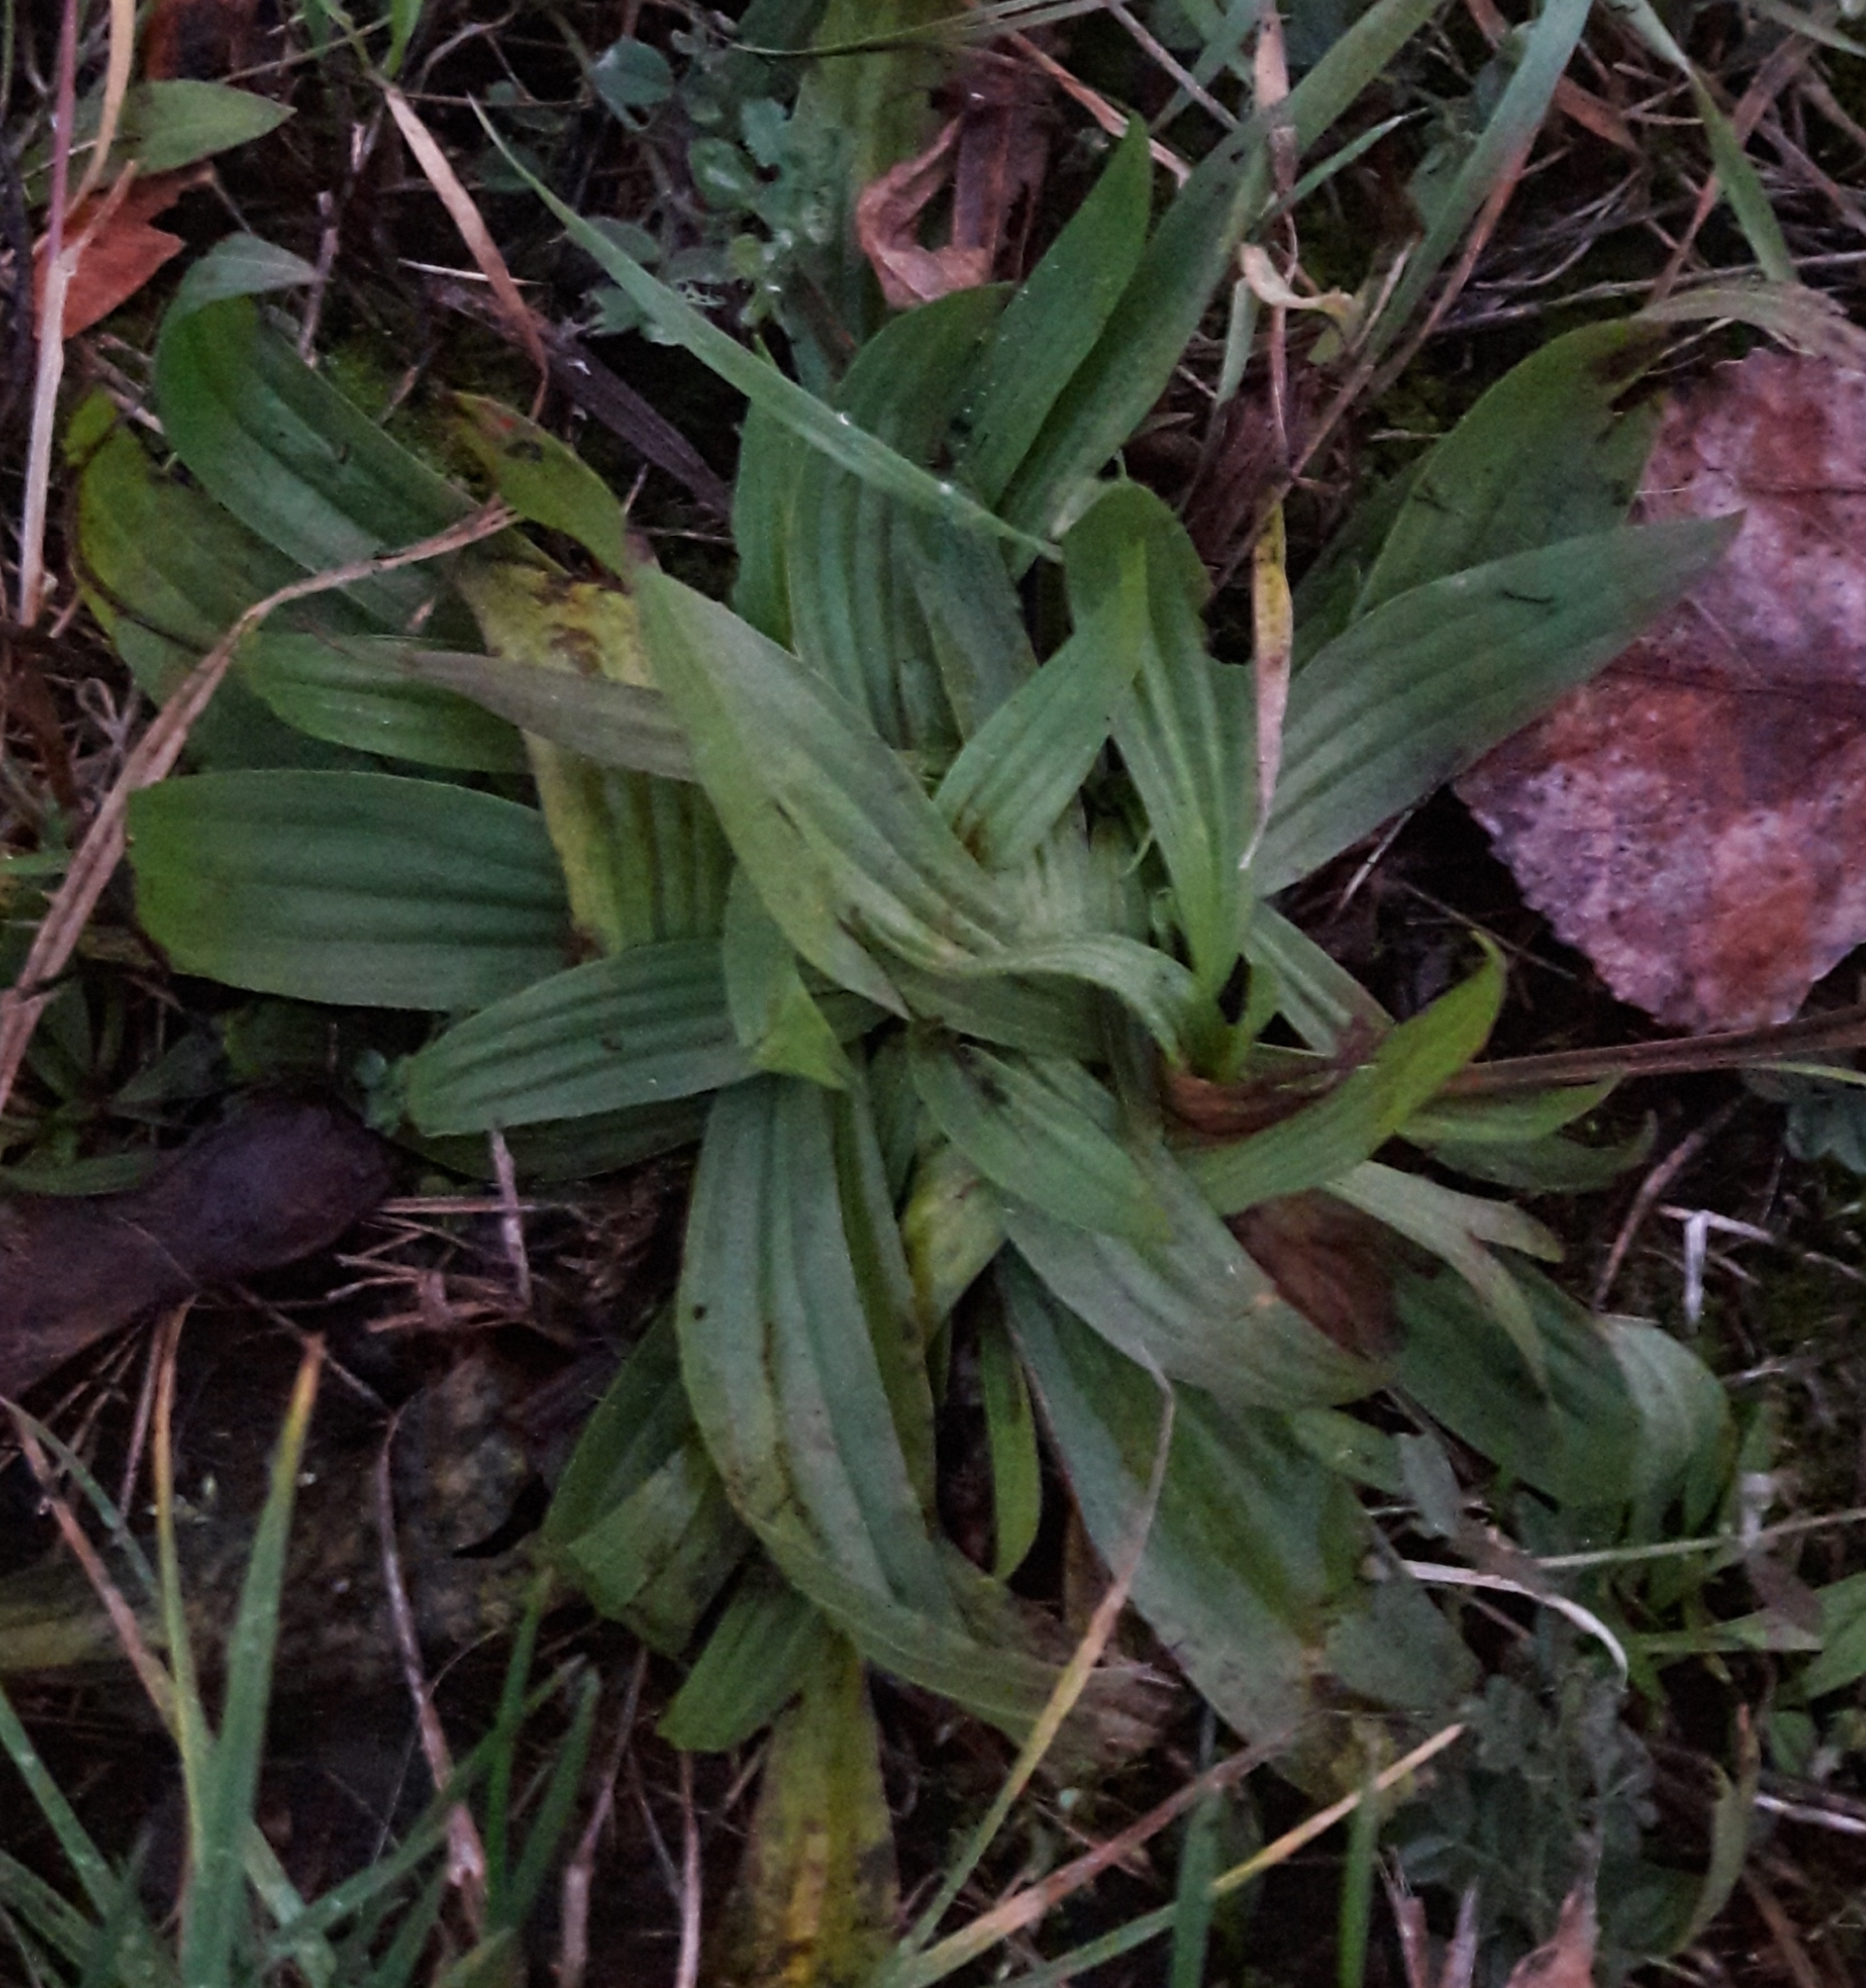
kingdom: Plantae
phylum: Tracheophyta
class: Magnoliopsida
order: Lamiales
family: Plantaginaceae
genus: Plantago
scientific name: Plantago lanceolata
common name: Ribwort plantain
